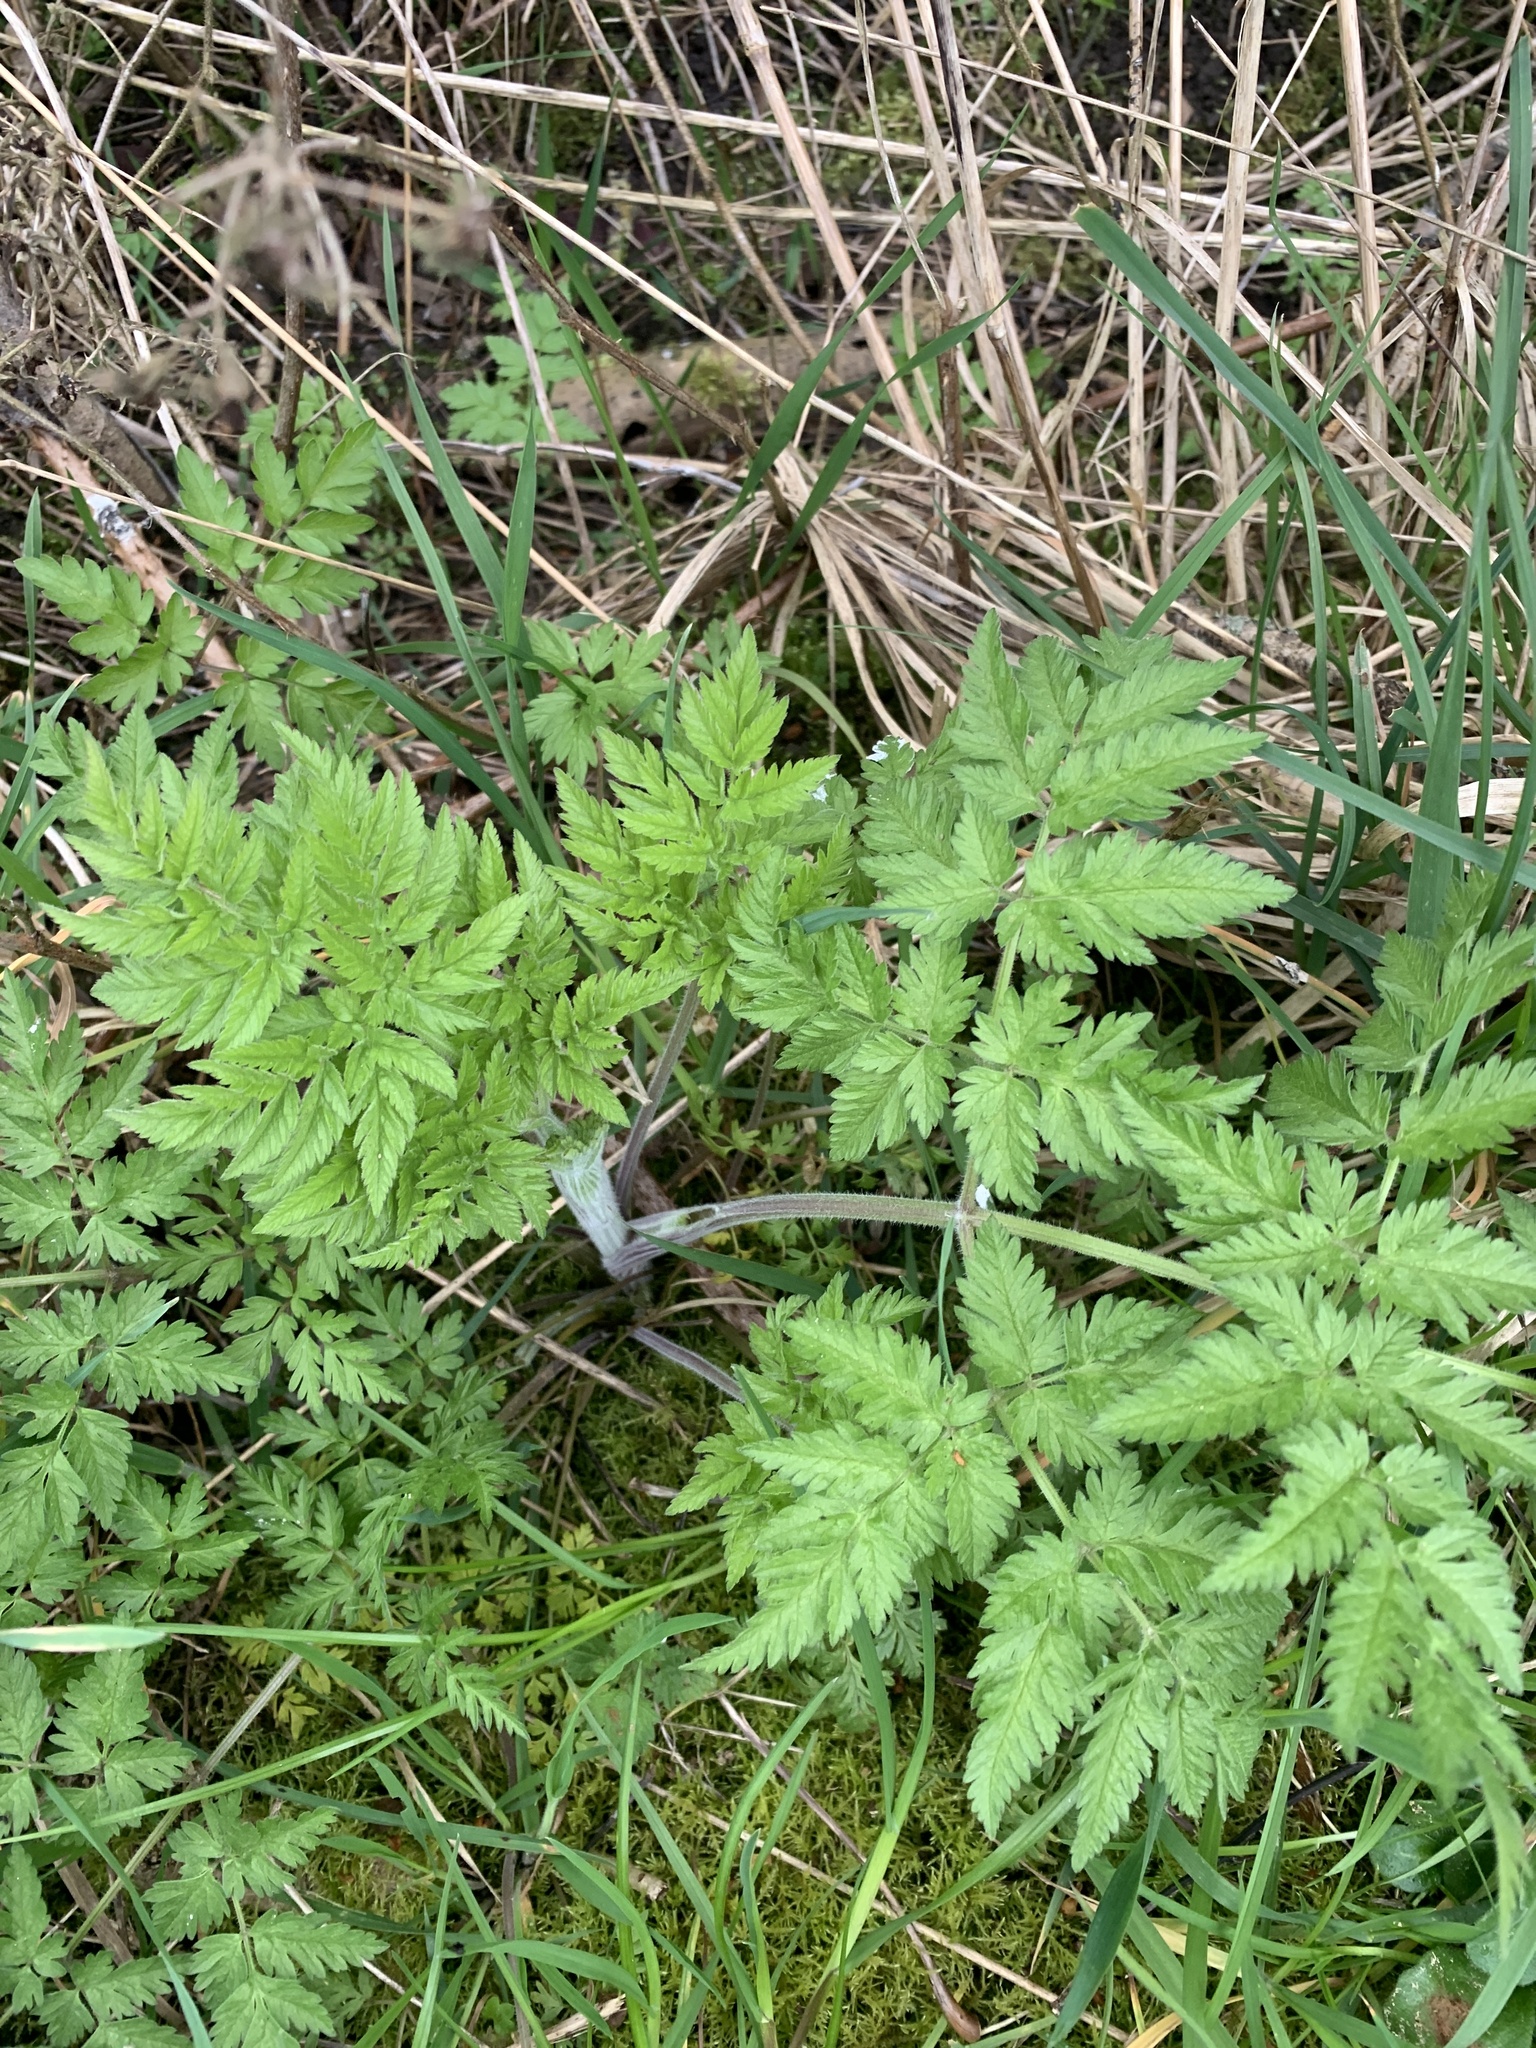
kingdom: Plantae
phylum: Tracheophyta
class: Magnoliopsida
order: Apiales
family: Apiaceae
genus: Anthriscus
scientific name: Anthriscus sylvestris
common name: Cow parsley
